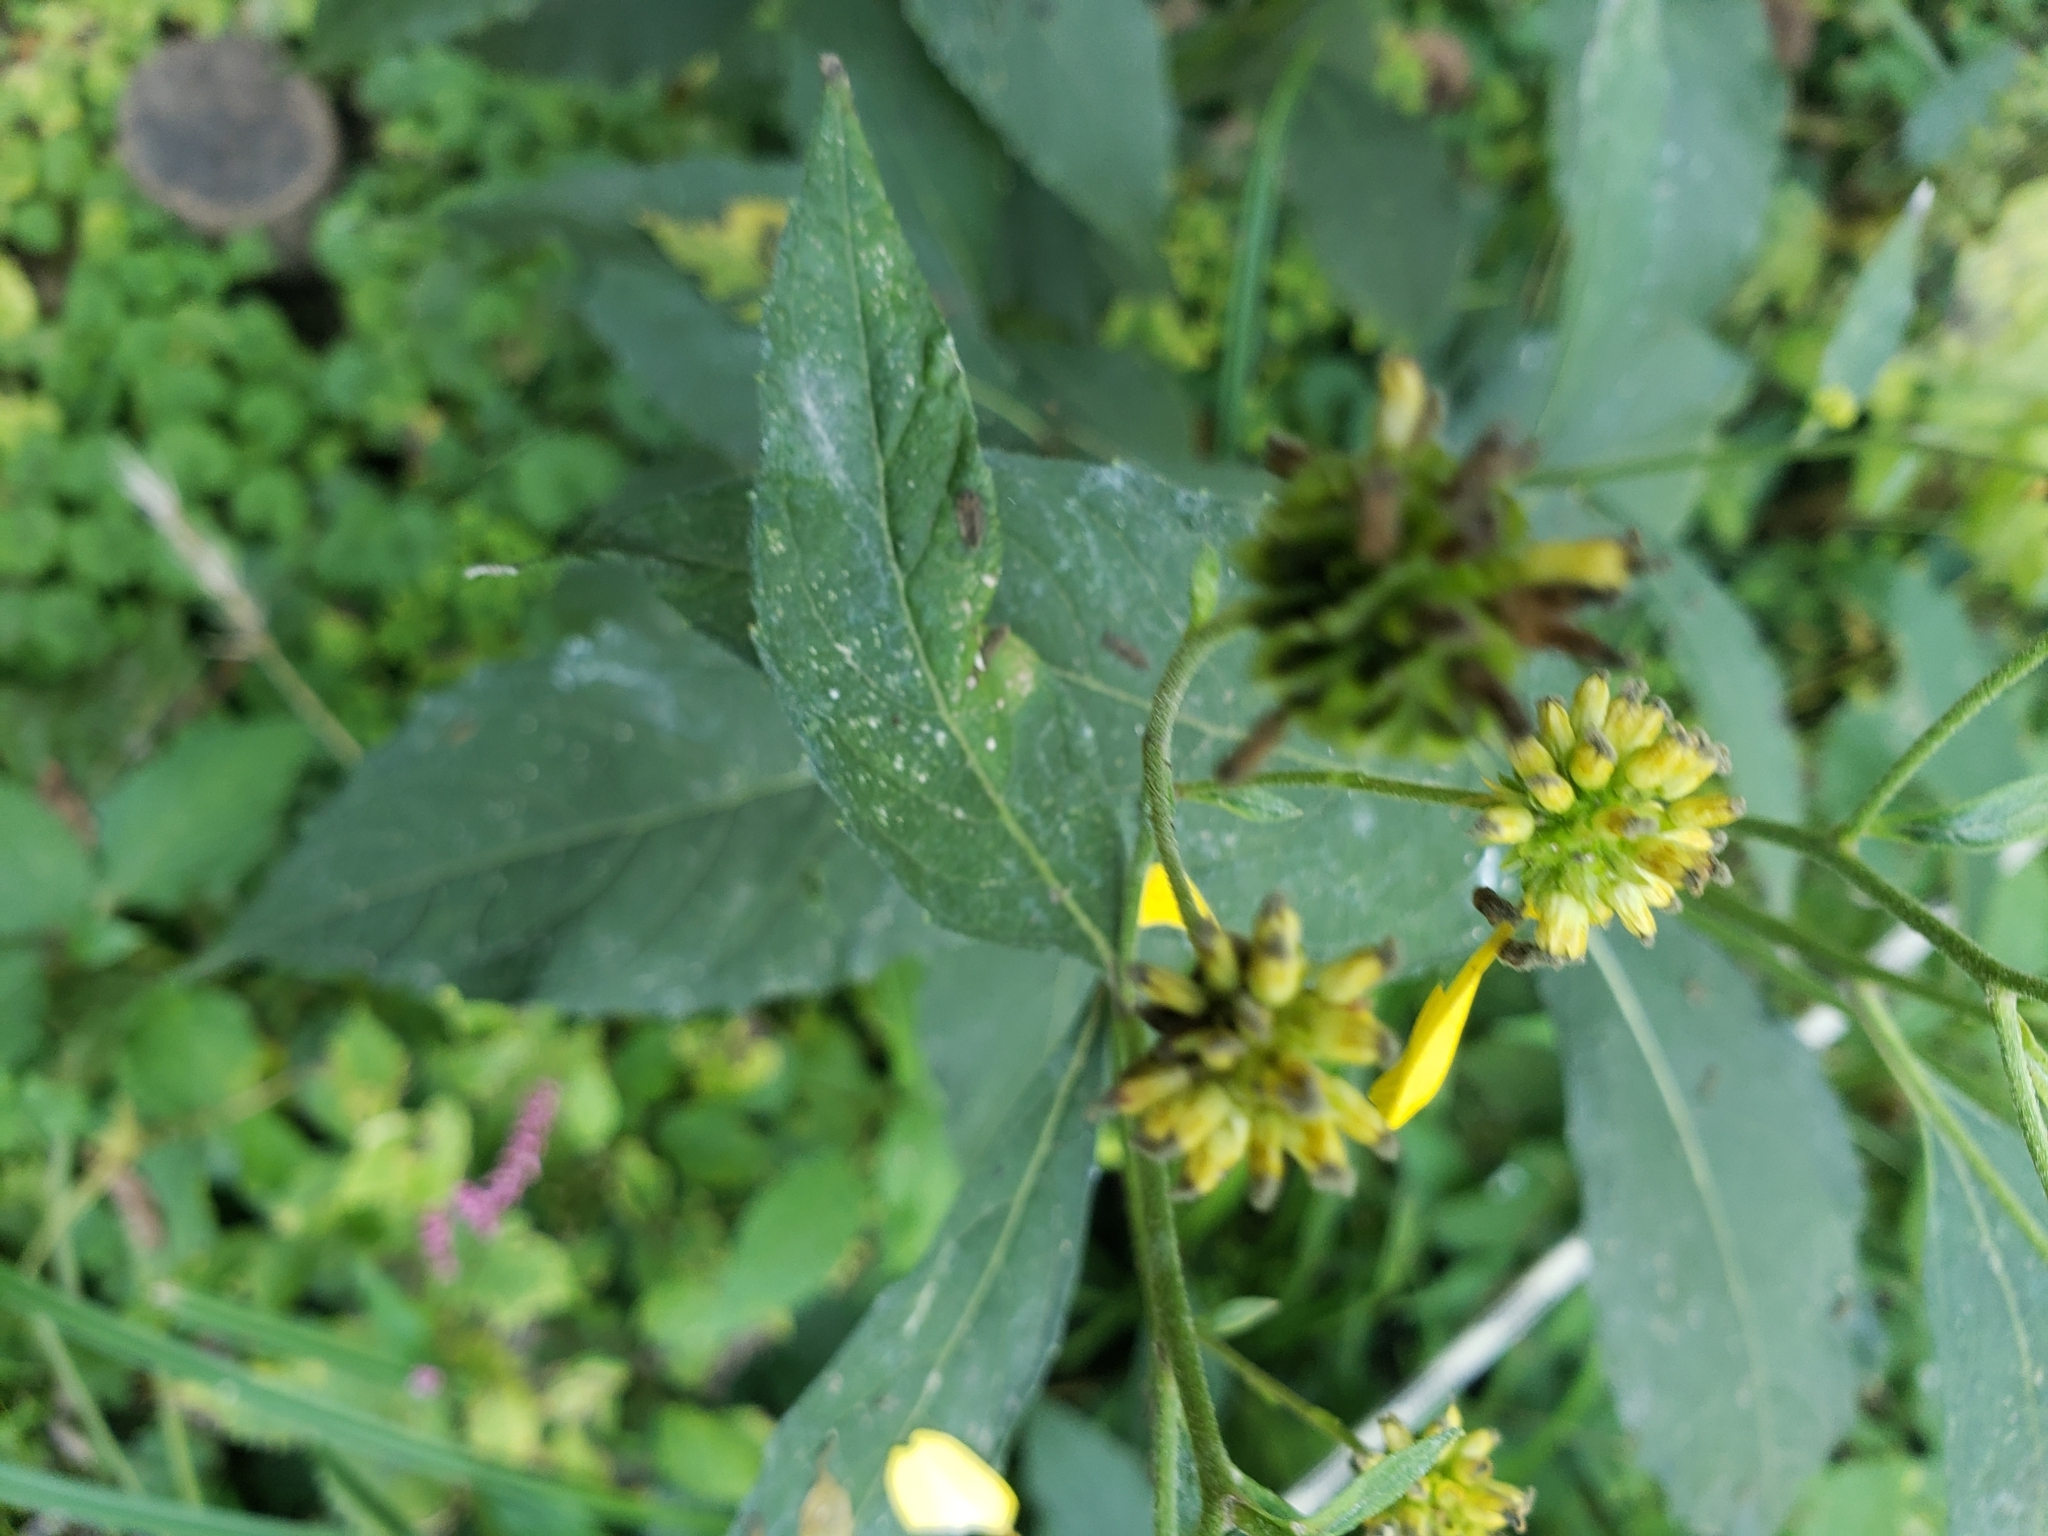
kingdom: Plantae
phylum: Tracheophyta
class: Magnoliopsida
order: Asterales
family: Asteraceae
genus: Verbesina
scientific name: Verbesina alternifolia
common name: Wingstem
